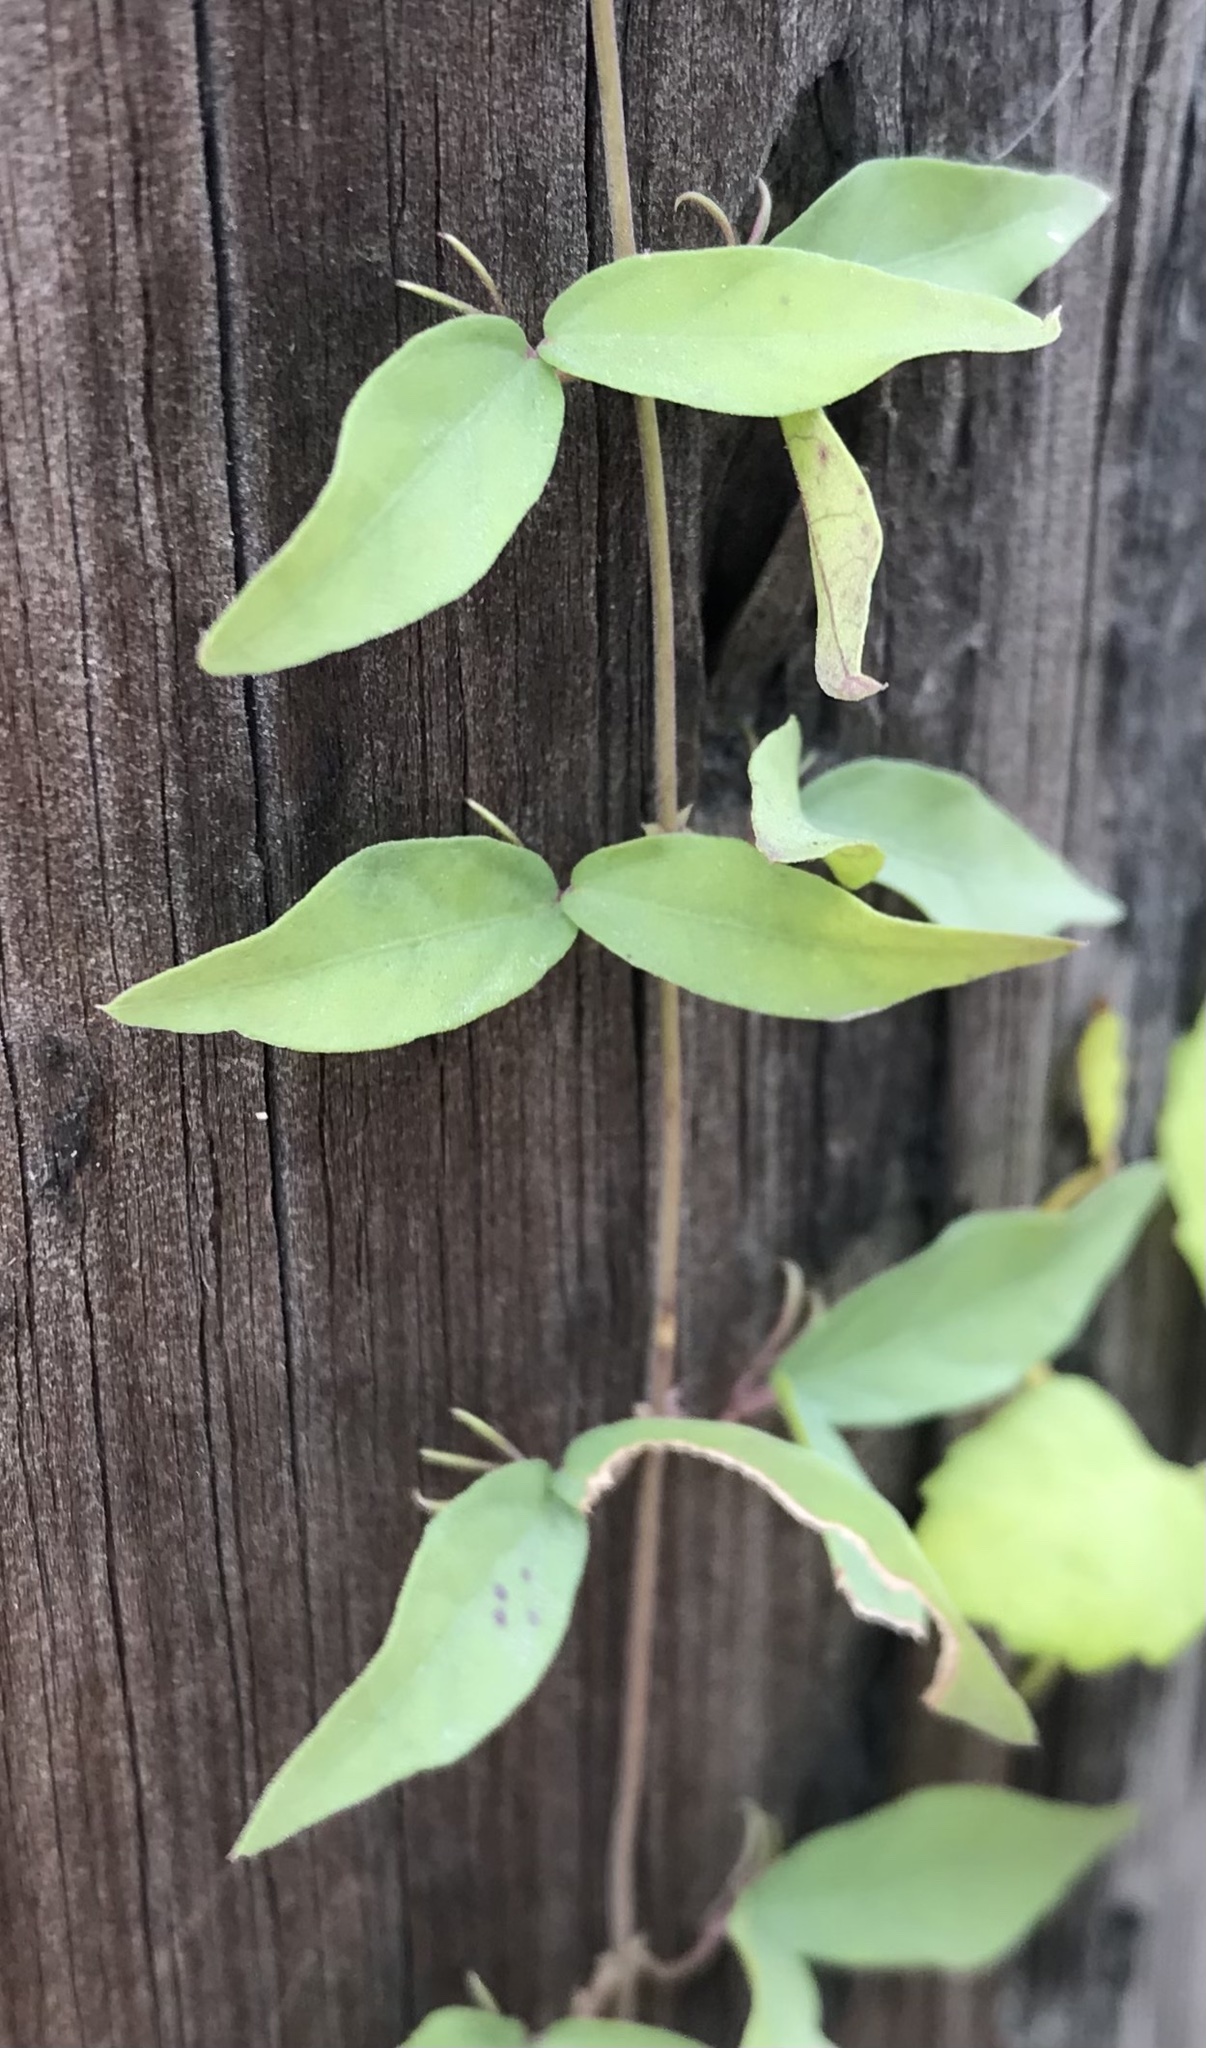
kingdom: Plantae
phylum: Tracheophyta
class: Magnoliopsida
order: Lamiales
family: Bignoniaceae
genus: Dolichandra
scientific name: Dolichandra unguis-cati
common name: Catclaw vine
